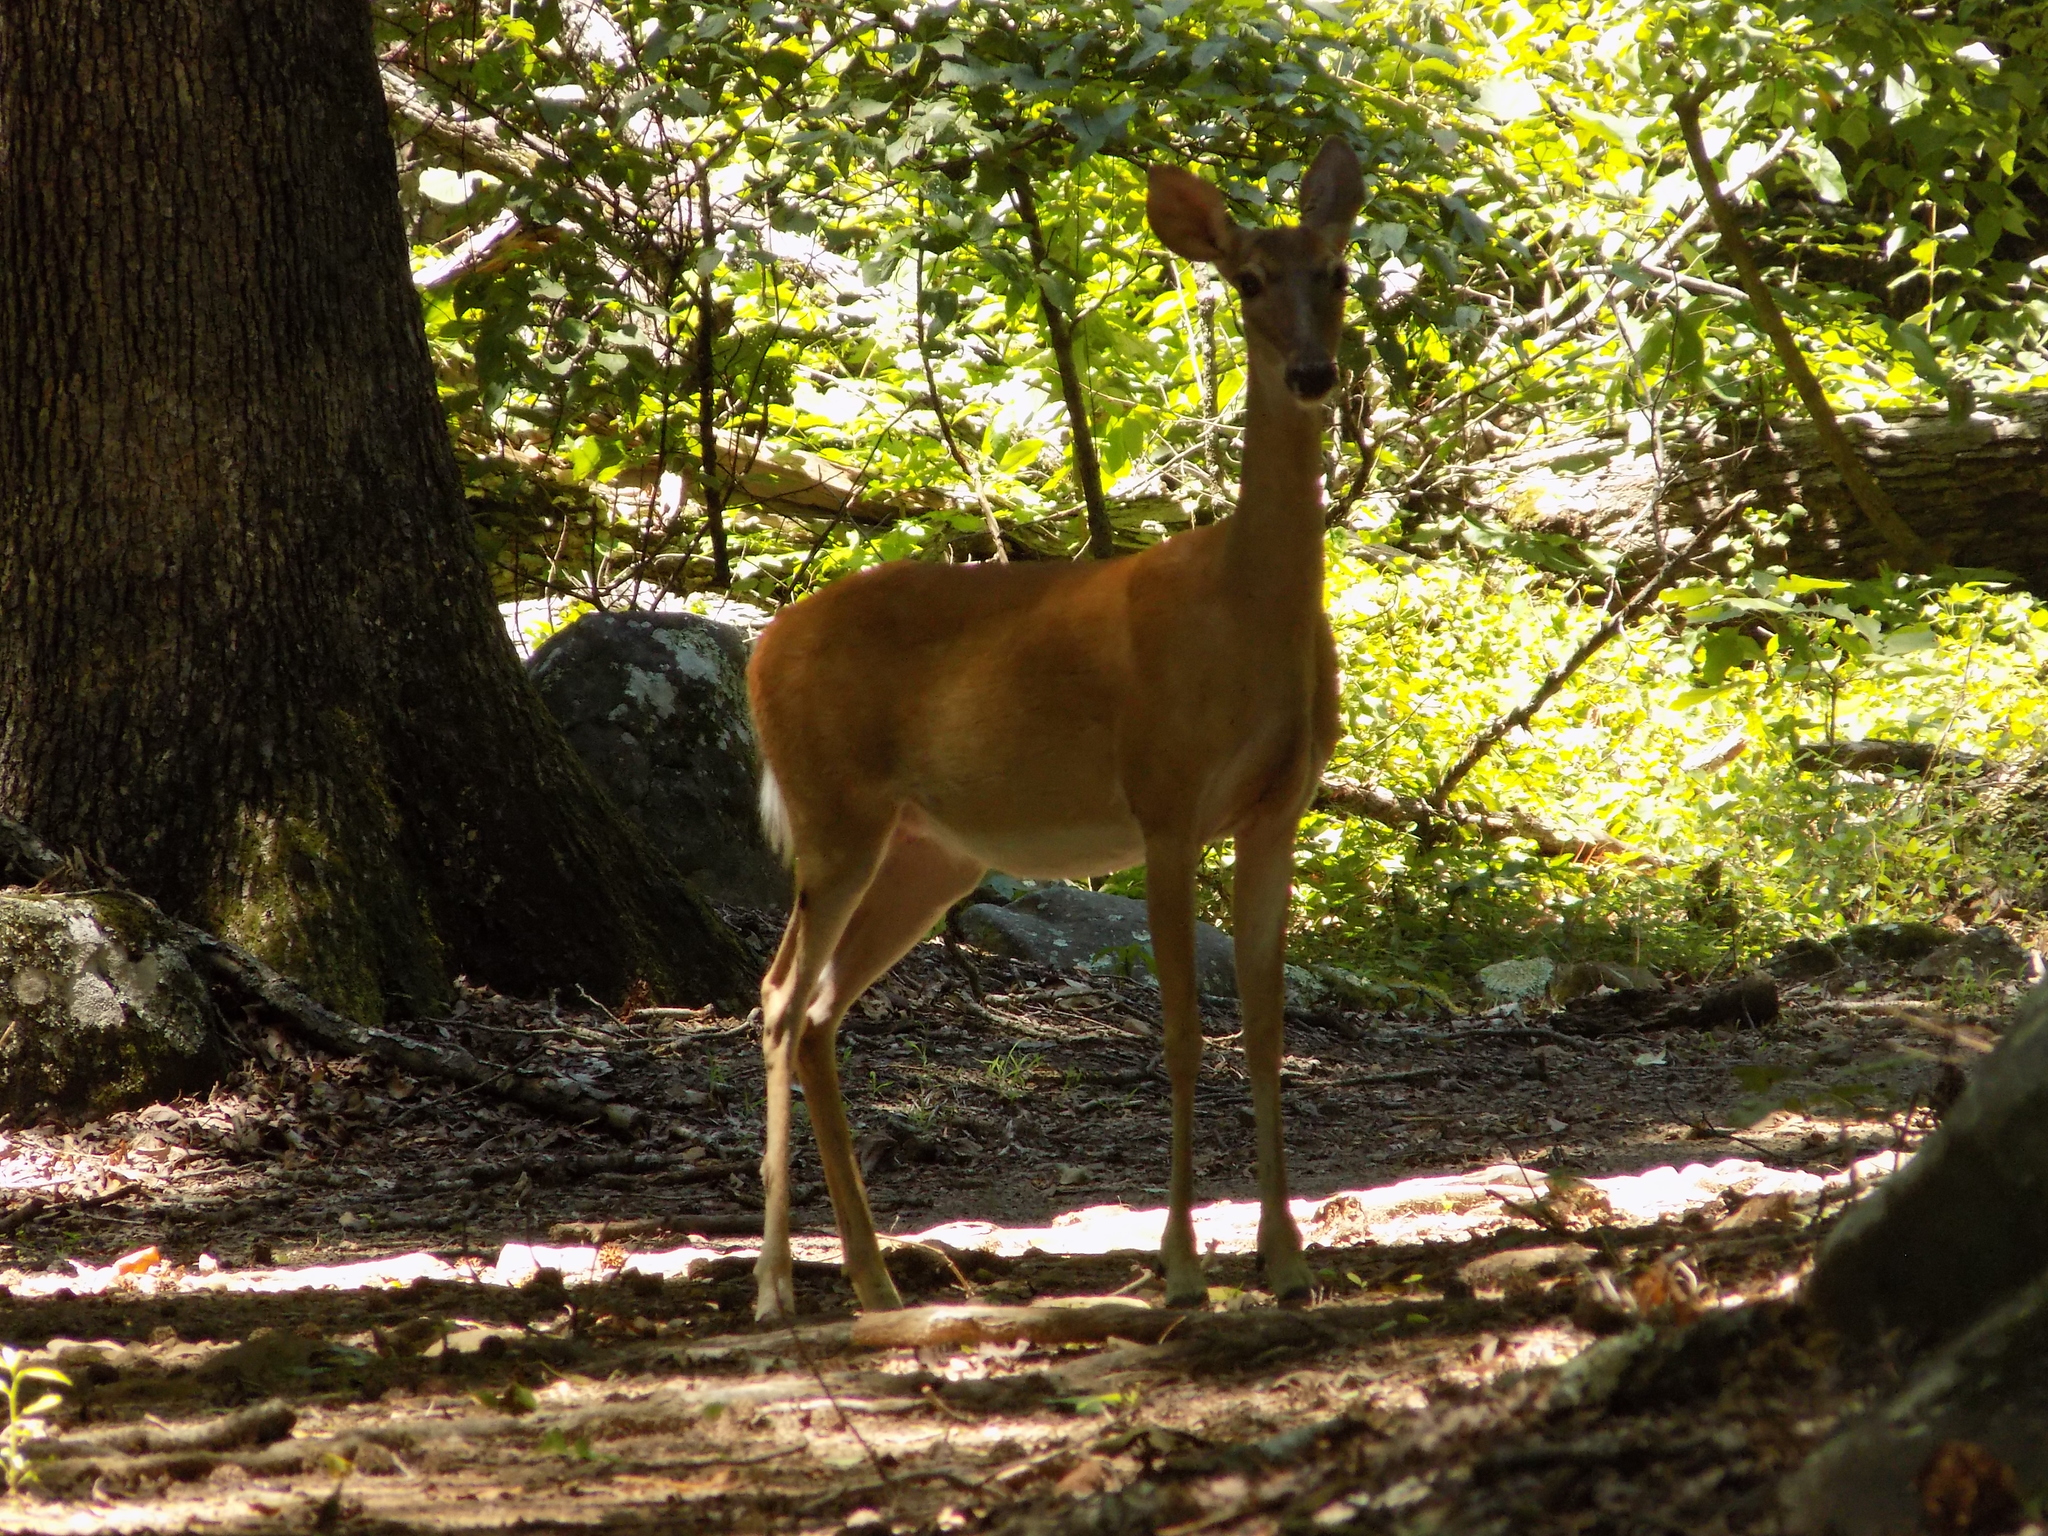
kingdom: Animalia
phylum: Chordata
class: Mammalia
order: Artiodactyla
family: Cervidae
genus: Odocoileus
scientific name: Odocoileus virginianus
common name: White-tailed deer
